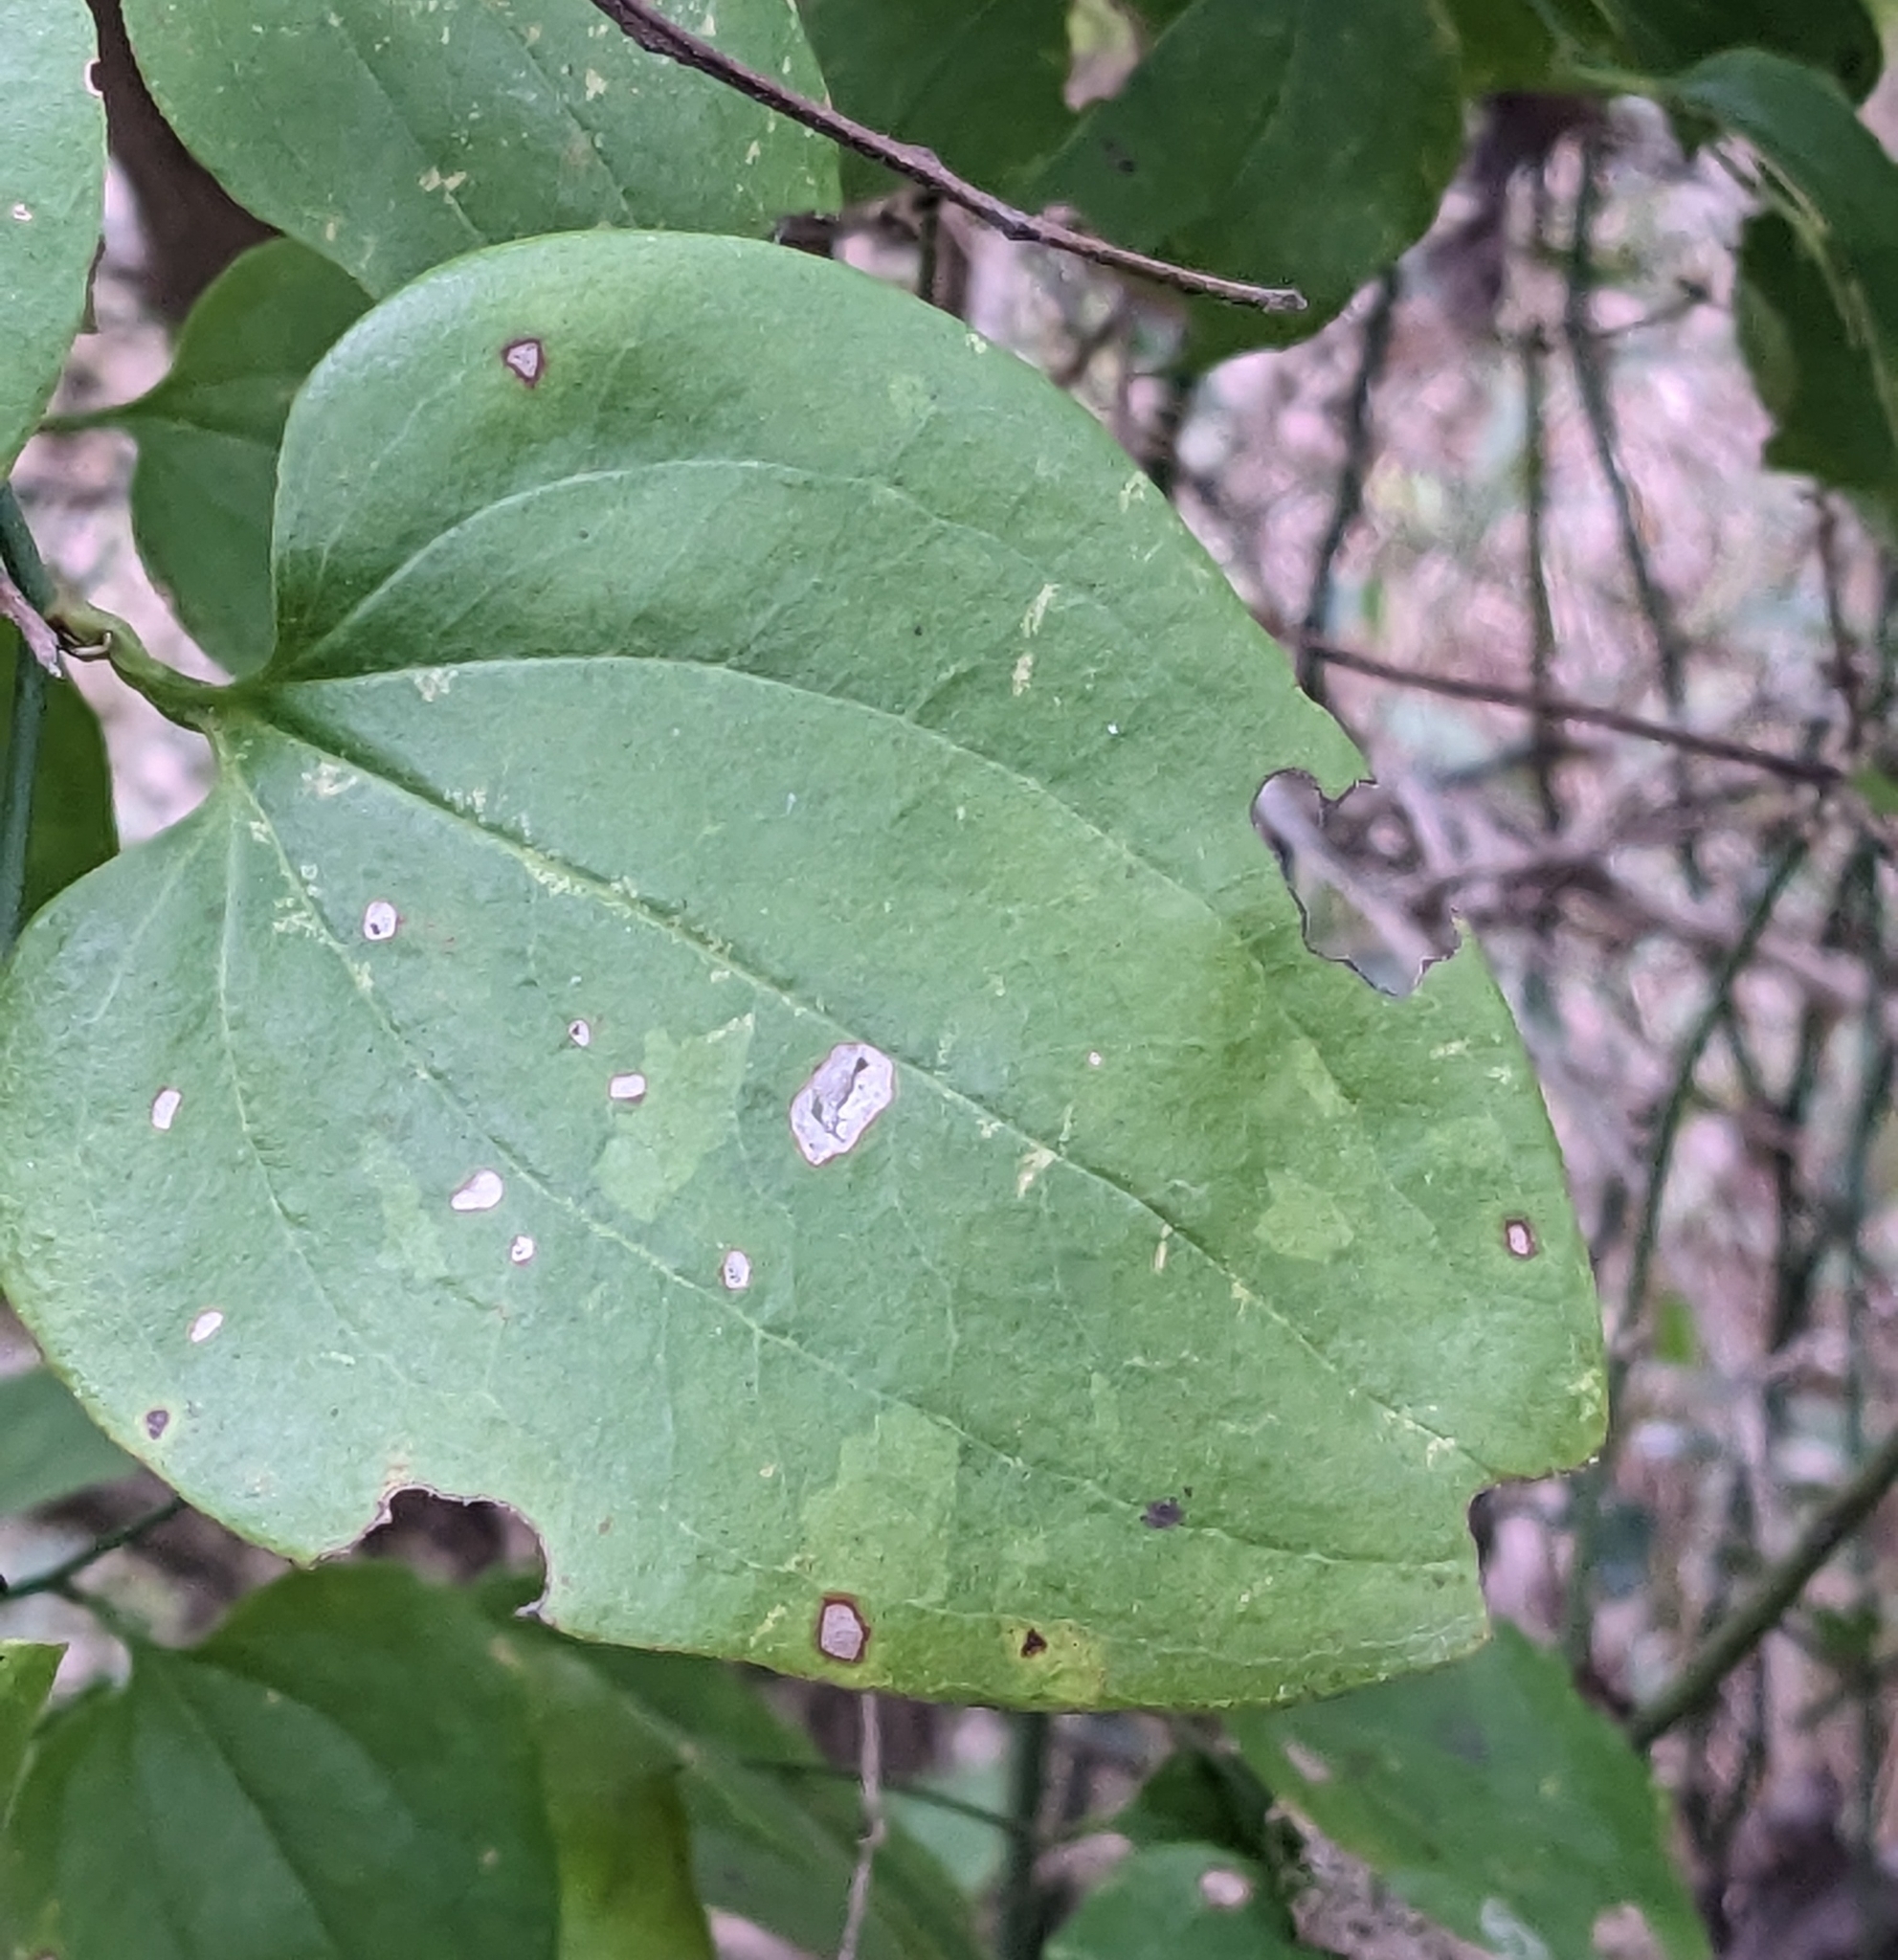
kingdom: Plantae
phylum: Tracheophyta
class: Liliopsida
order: Liliales
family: Smilacaceae
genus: Smilax
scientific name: Smilax tamnoides
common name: Hellfetter
